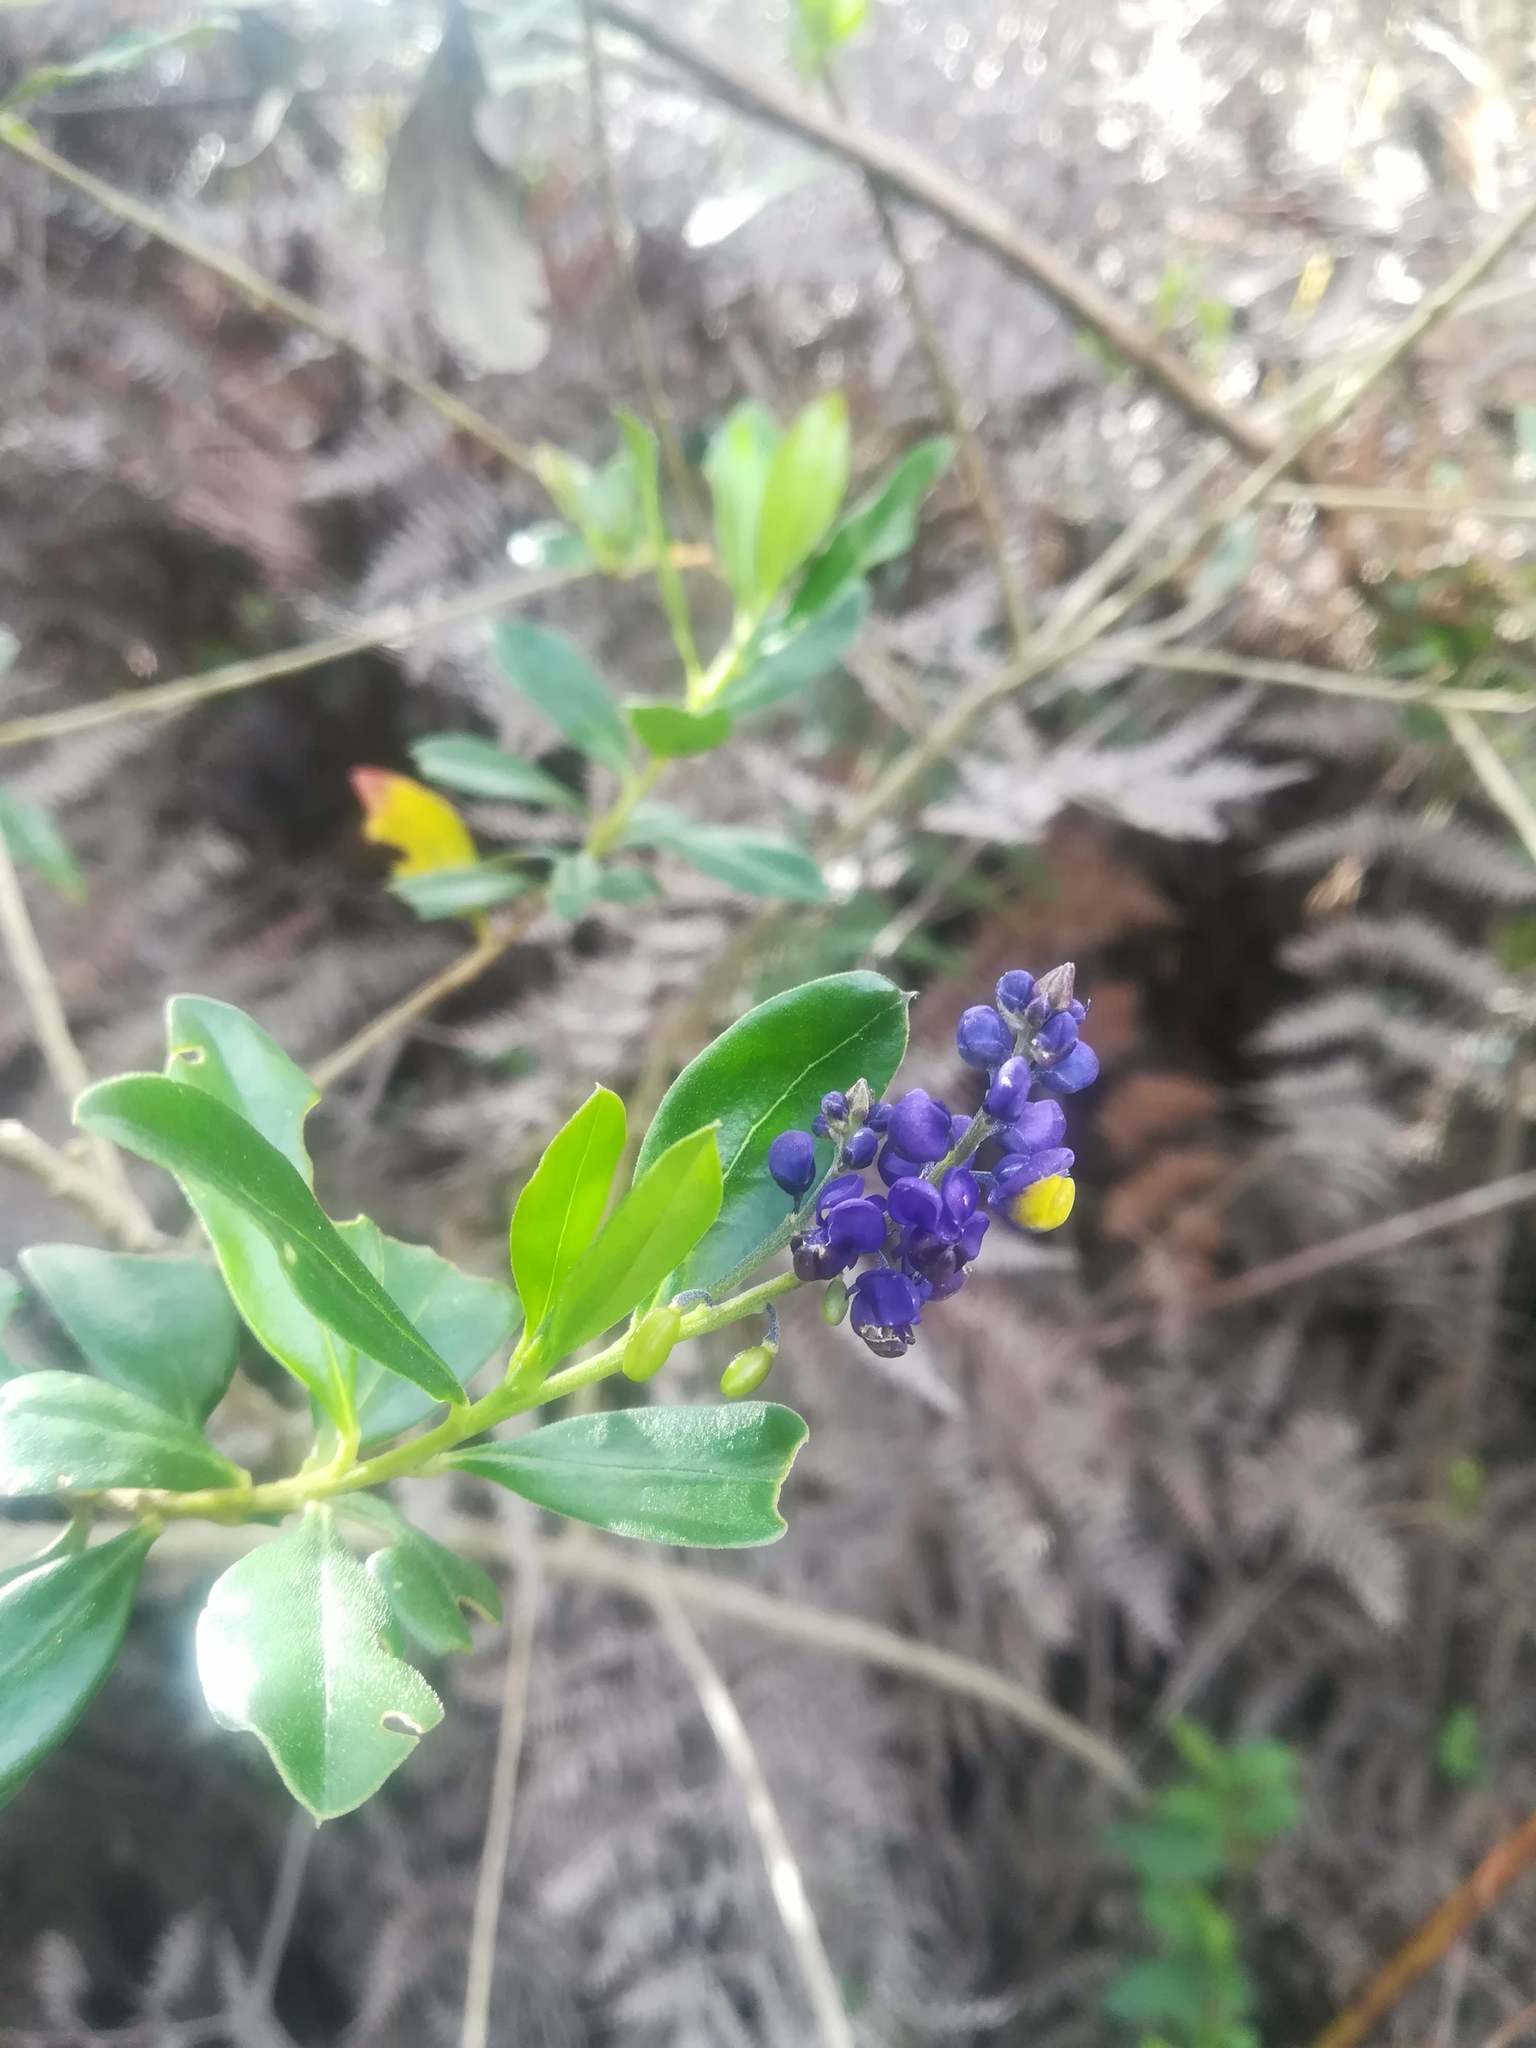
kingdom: Plantae
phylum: Tracheophyta
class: Magnoliopsida
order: Fabales
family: Polygalaceae
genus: Monnina
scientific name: Monnina aestuans
